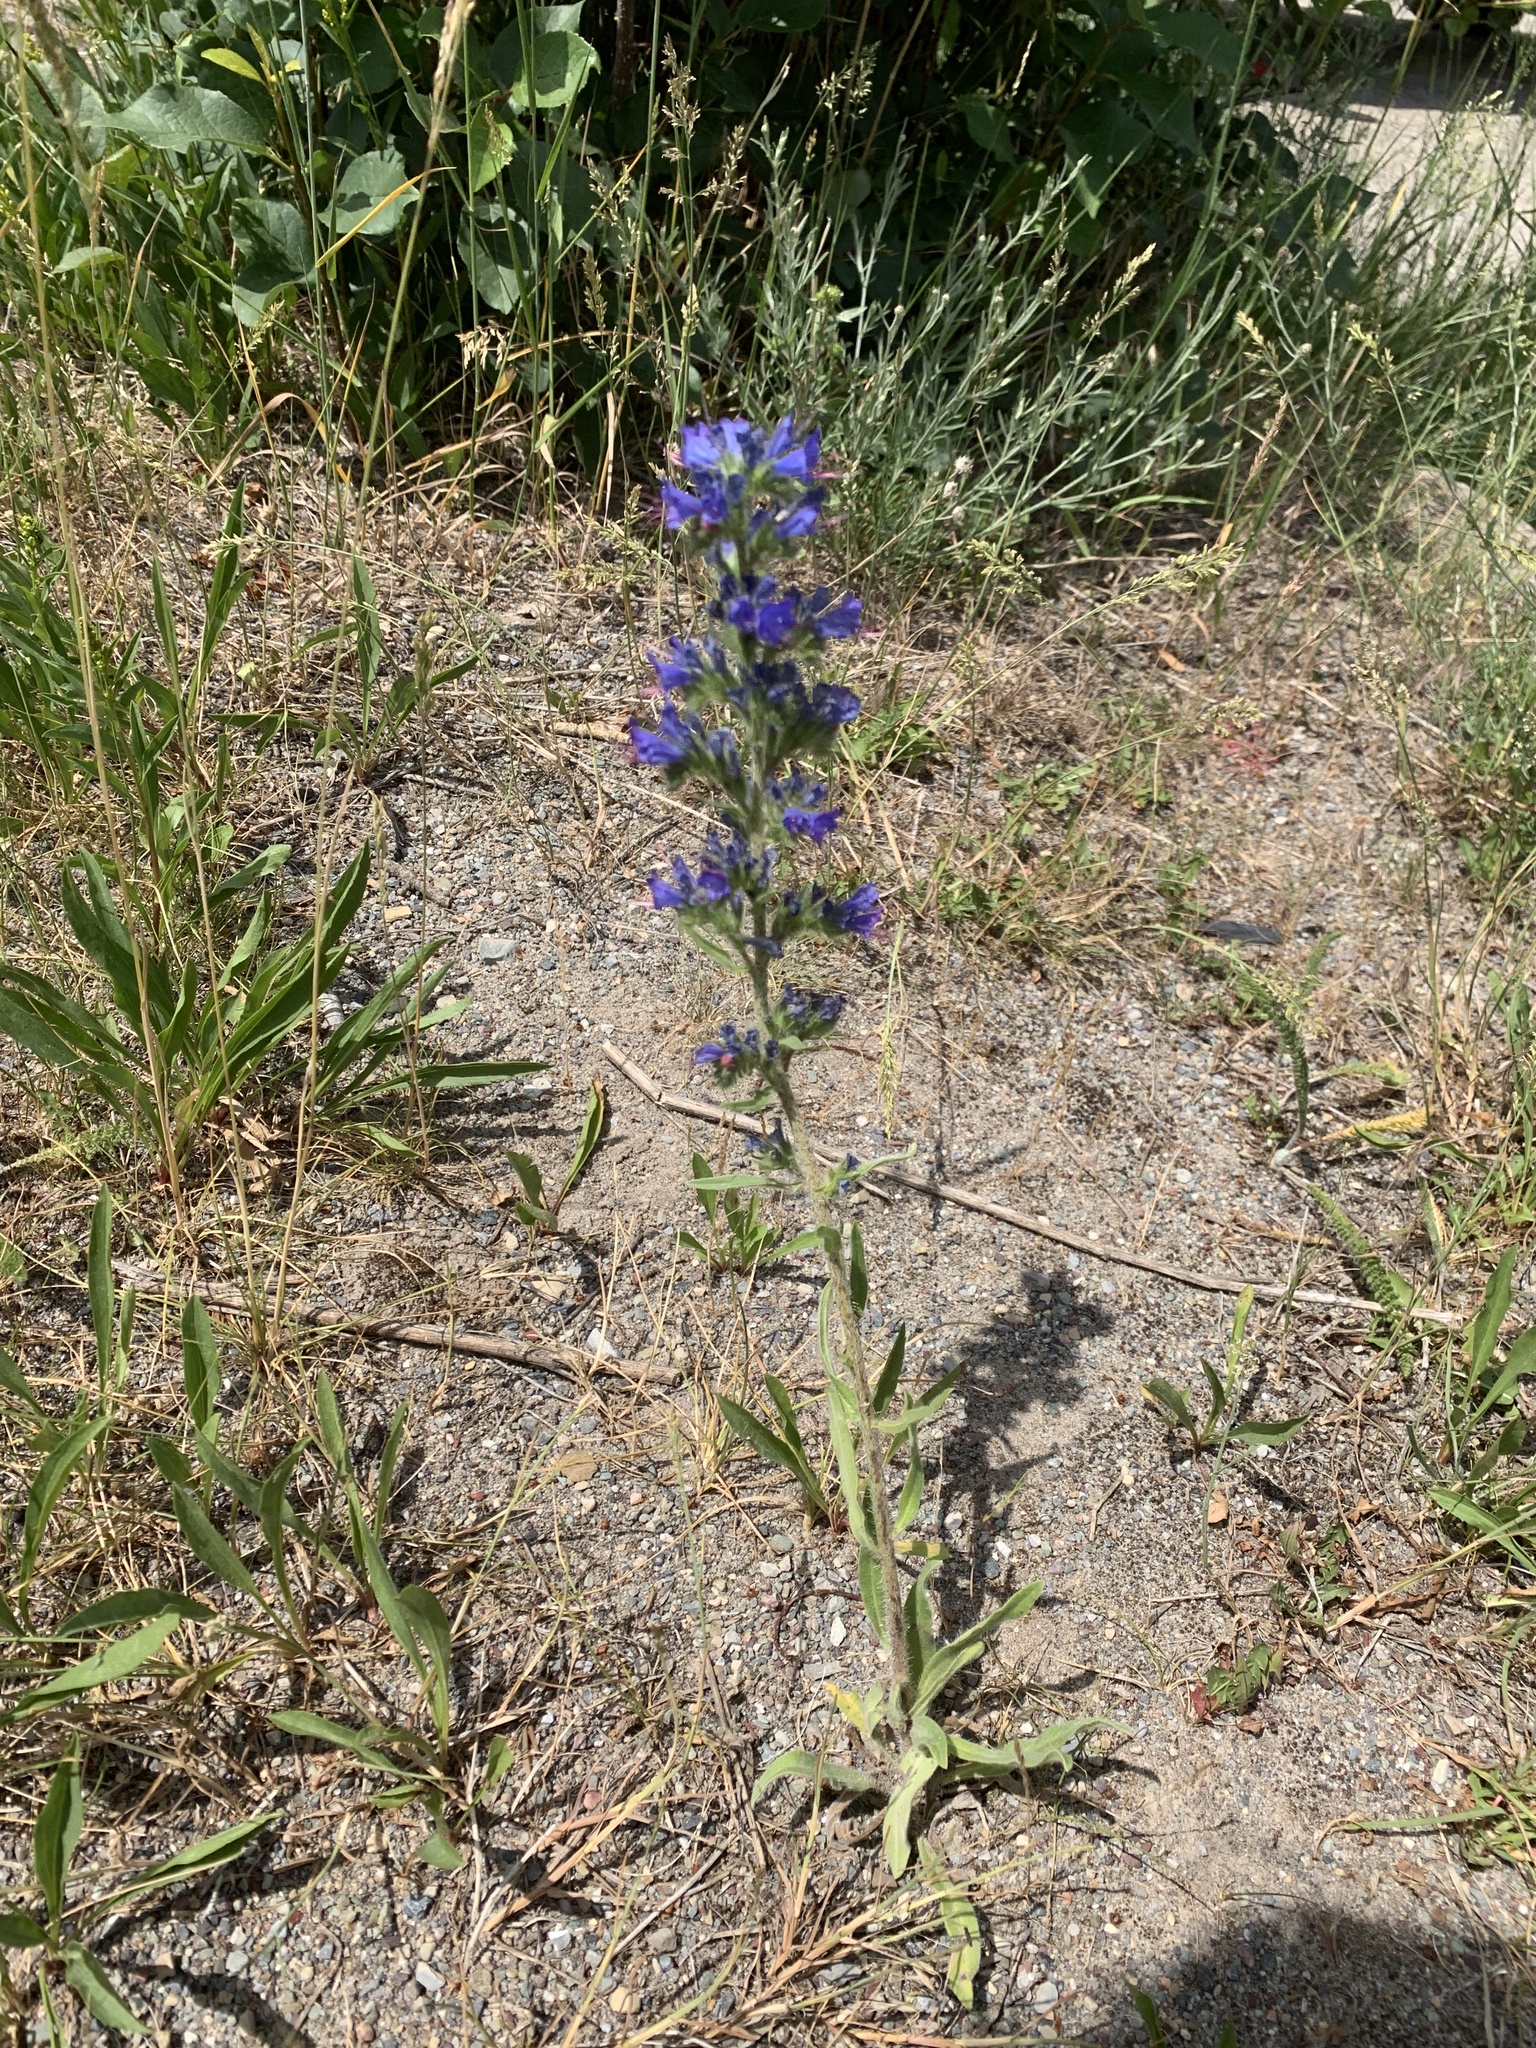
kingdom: Plantae
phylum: Tracheophyta
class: Magnoliopsida
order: Boraginales
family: Boraginaceae
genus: Echium
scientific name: Echium vulgare
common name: Common viper's bugloss
